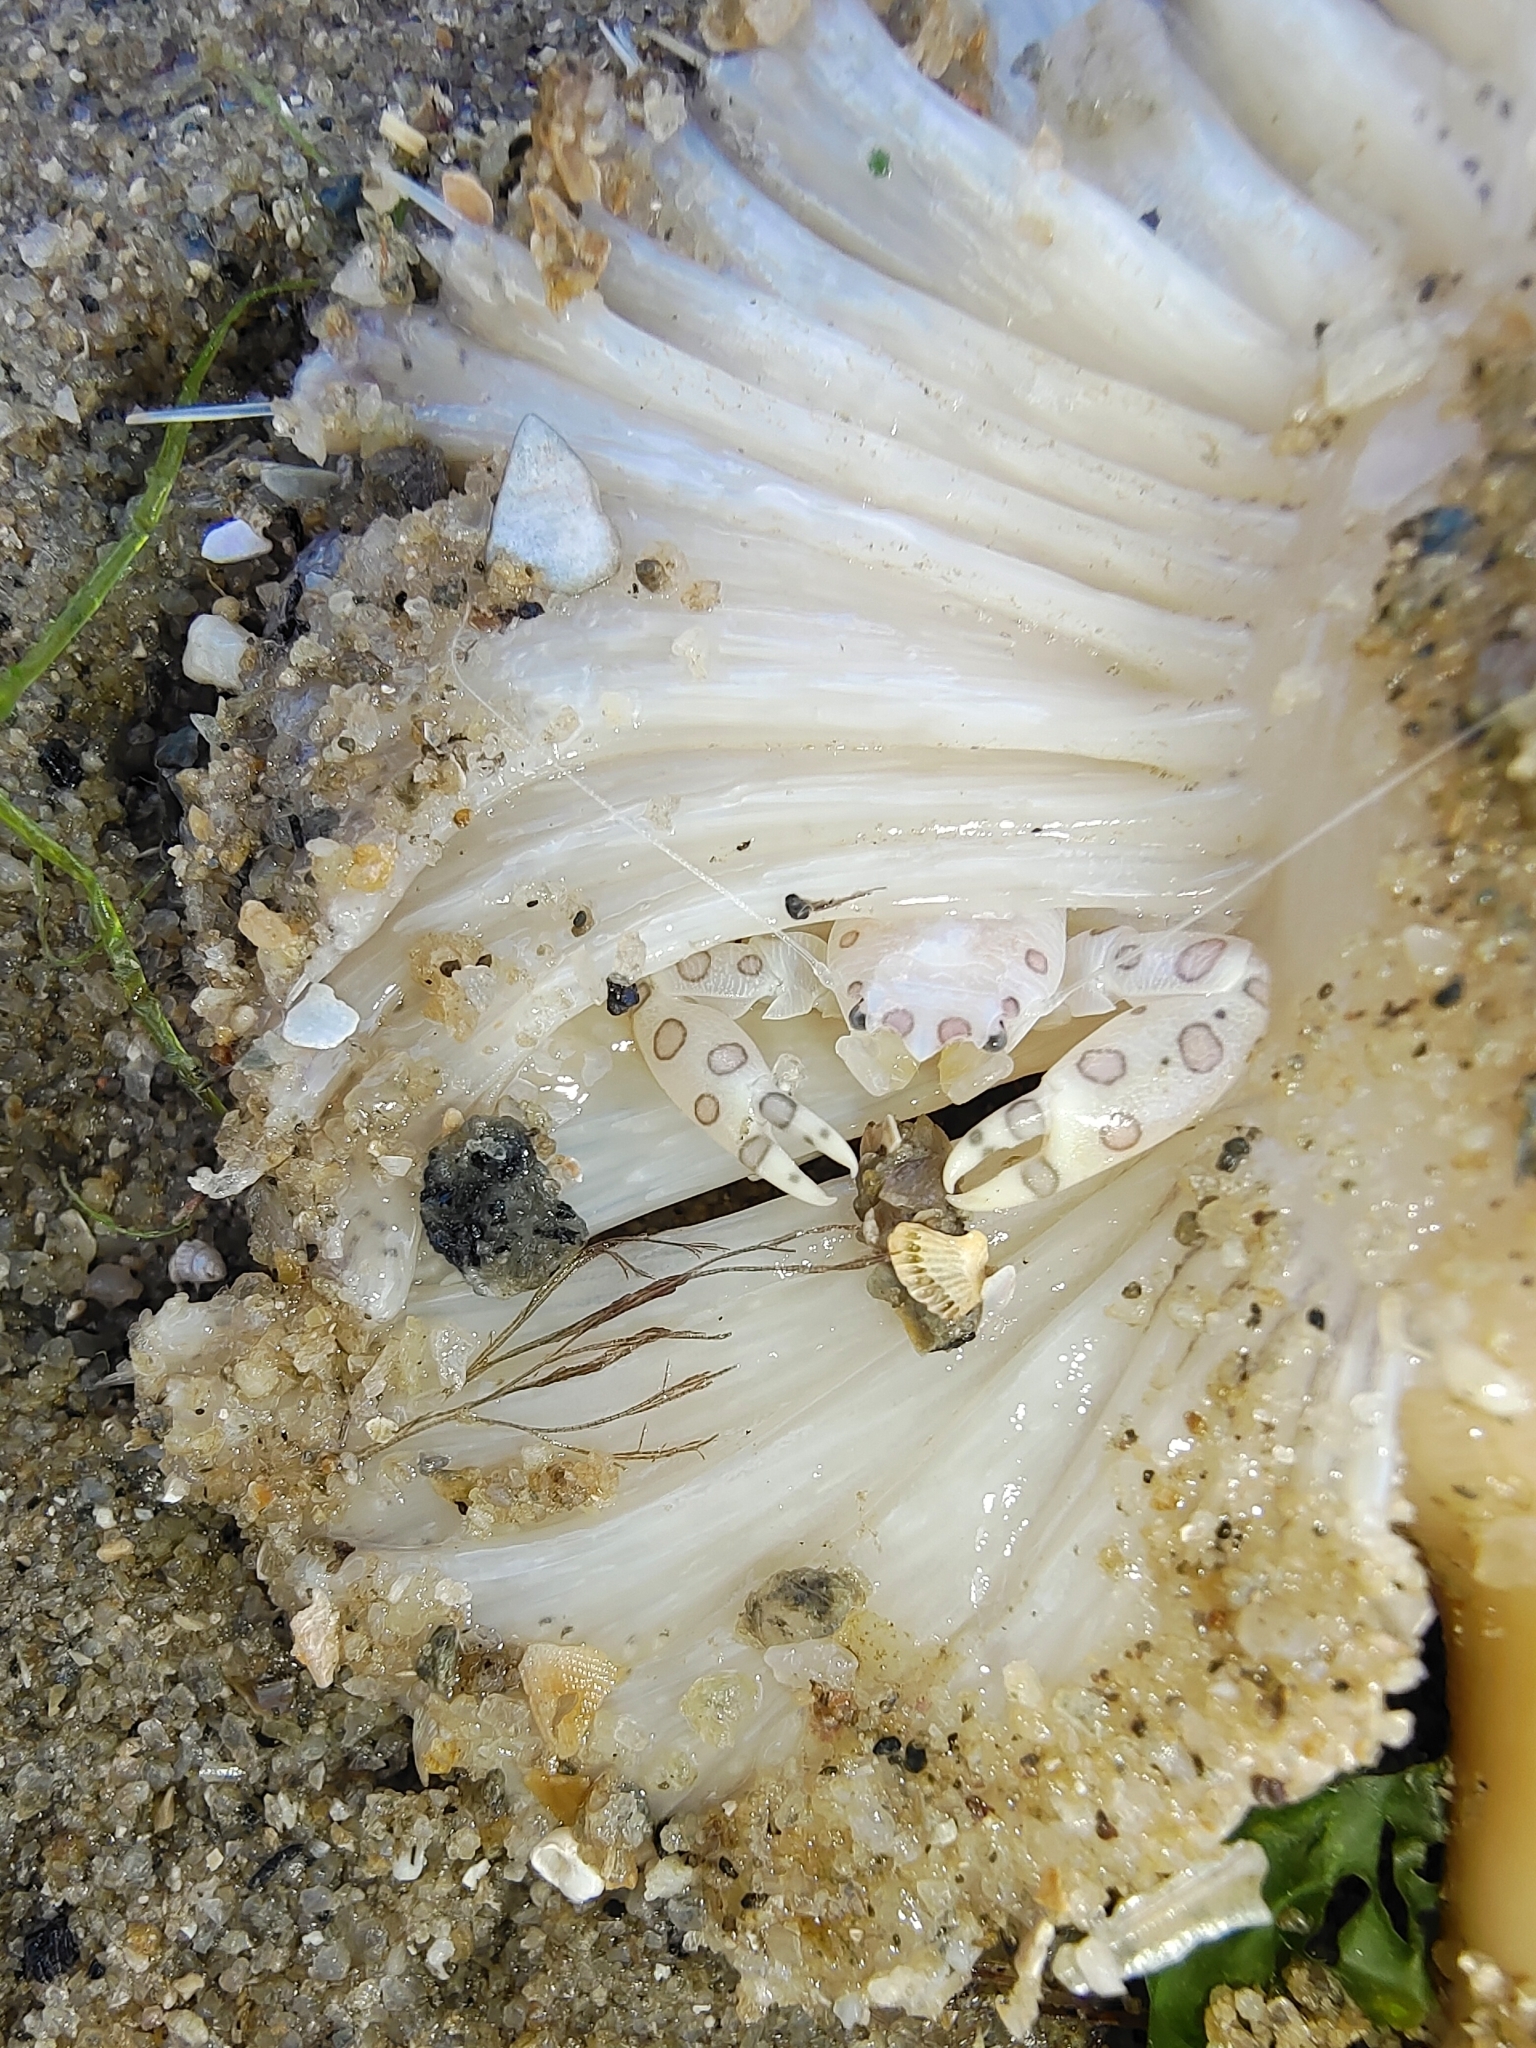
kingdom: Animalia
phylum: Arthropoda
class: Malacostraca
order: Decapoda
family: Porcellanidae
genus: Porcellanella
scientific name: Porcellanella triloba
